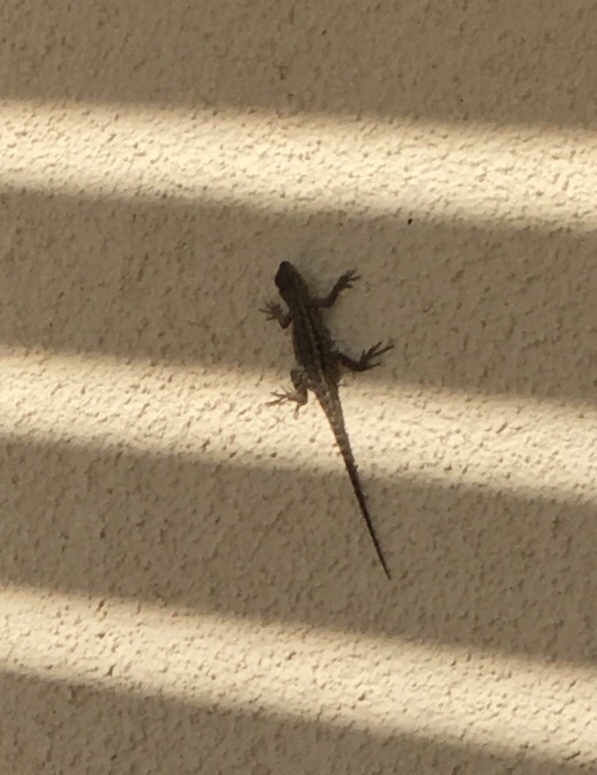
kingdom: Animalia
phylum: Chordata
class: Squamata
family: Phrynosomatidae
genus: Sceloporus
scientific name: Sceloporus occidentalis
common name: Western fence lizard
